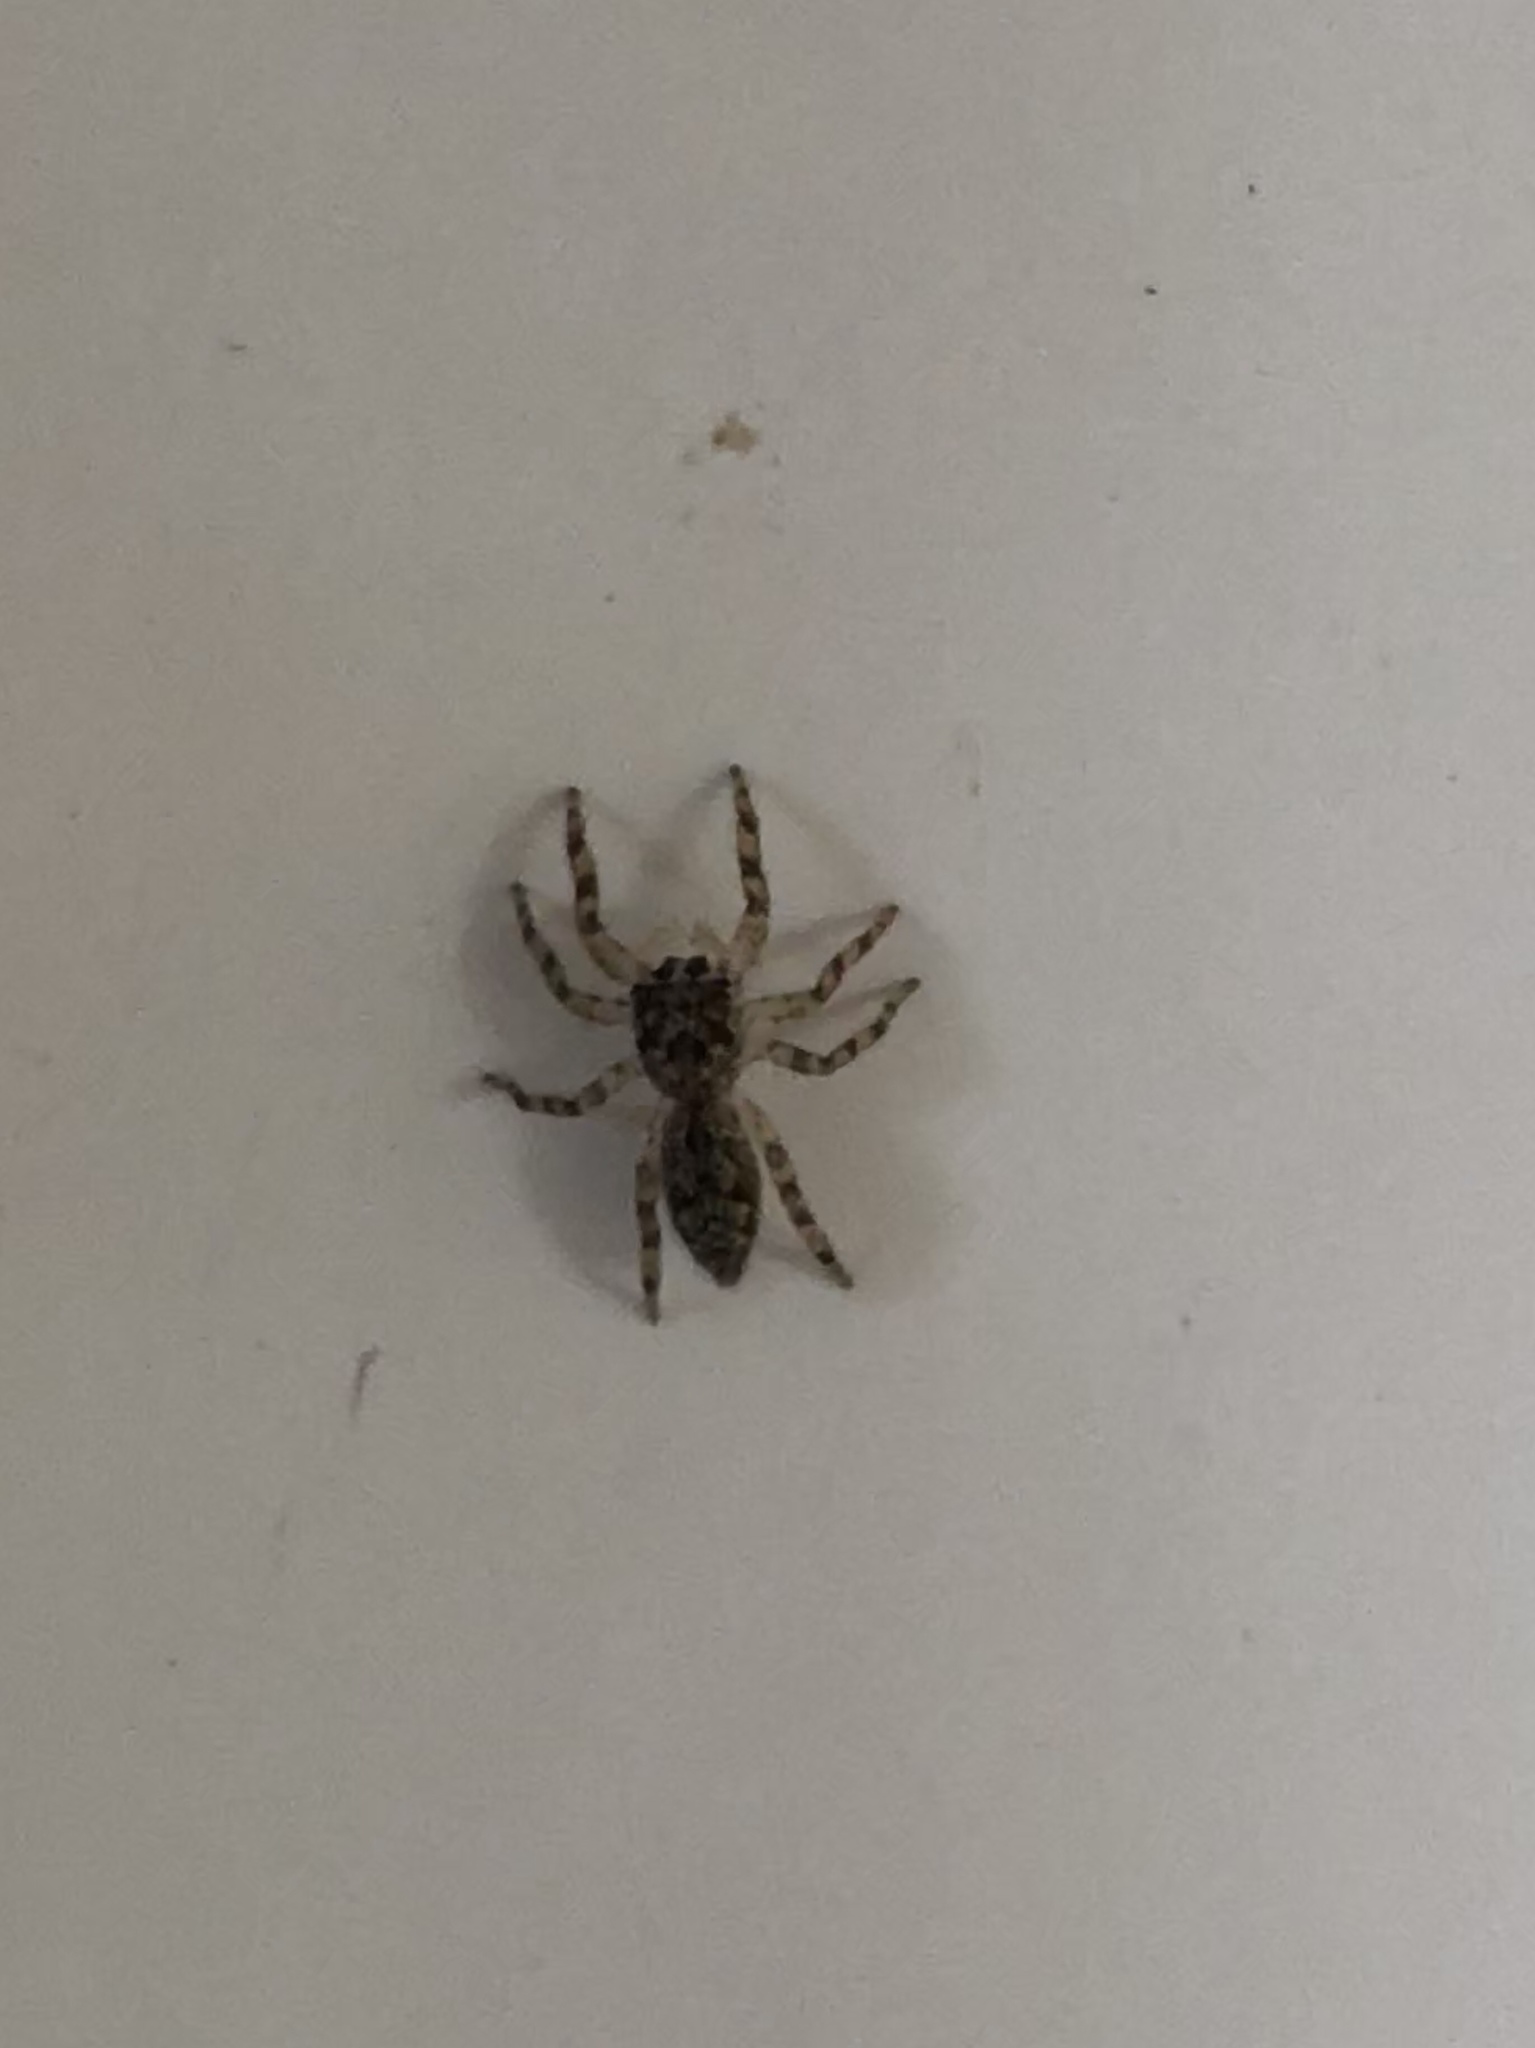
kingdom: Animalia
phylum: Arthropoda
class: Arachnida
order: Araneae
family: Salticidae
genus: Platycryptus
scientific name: Platycryptus undatus
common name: Tan jumping spider
